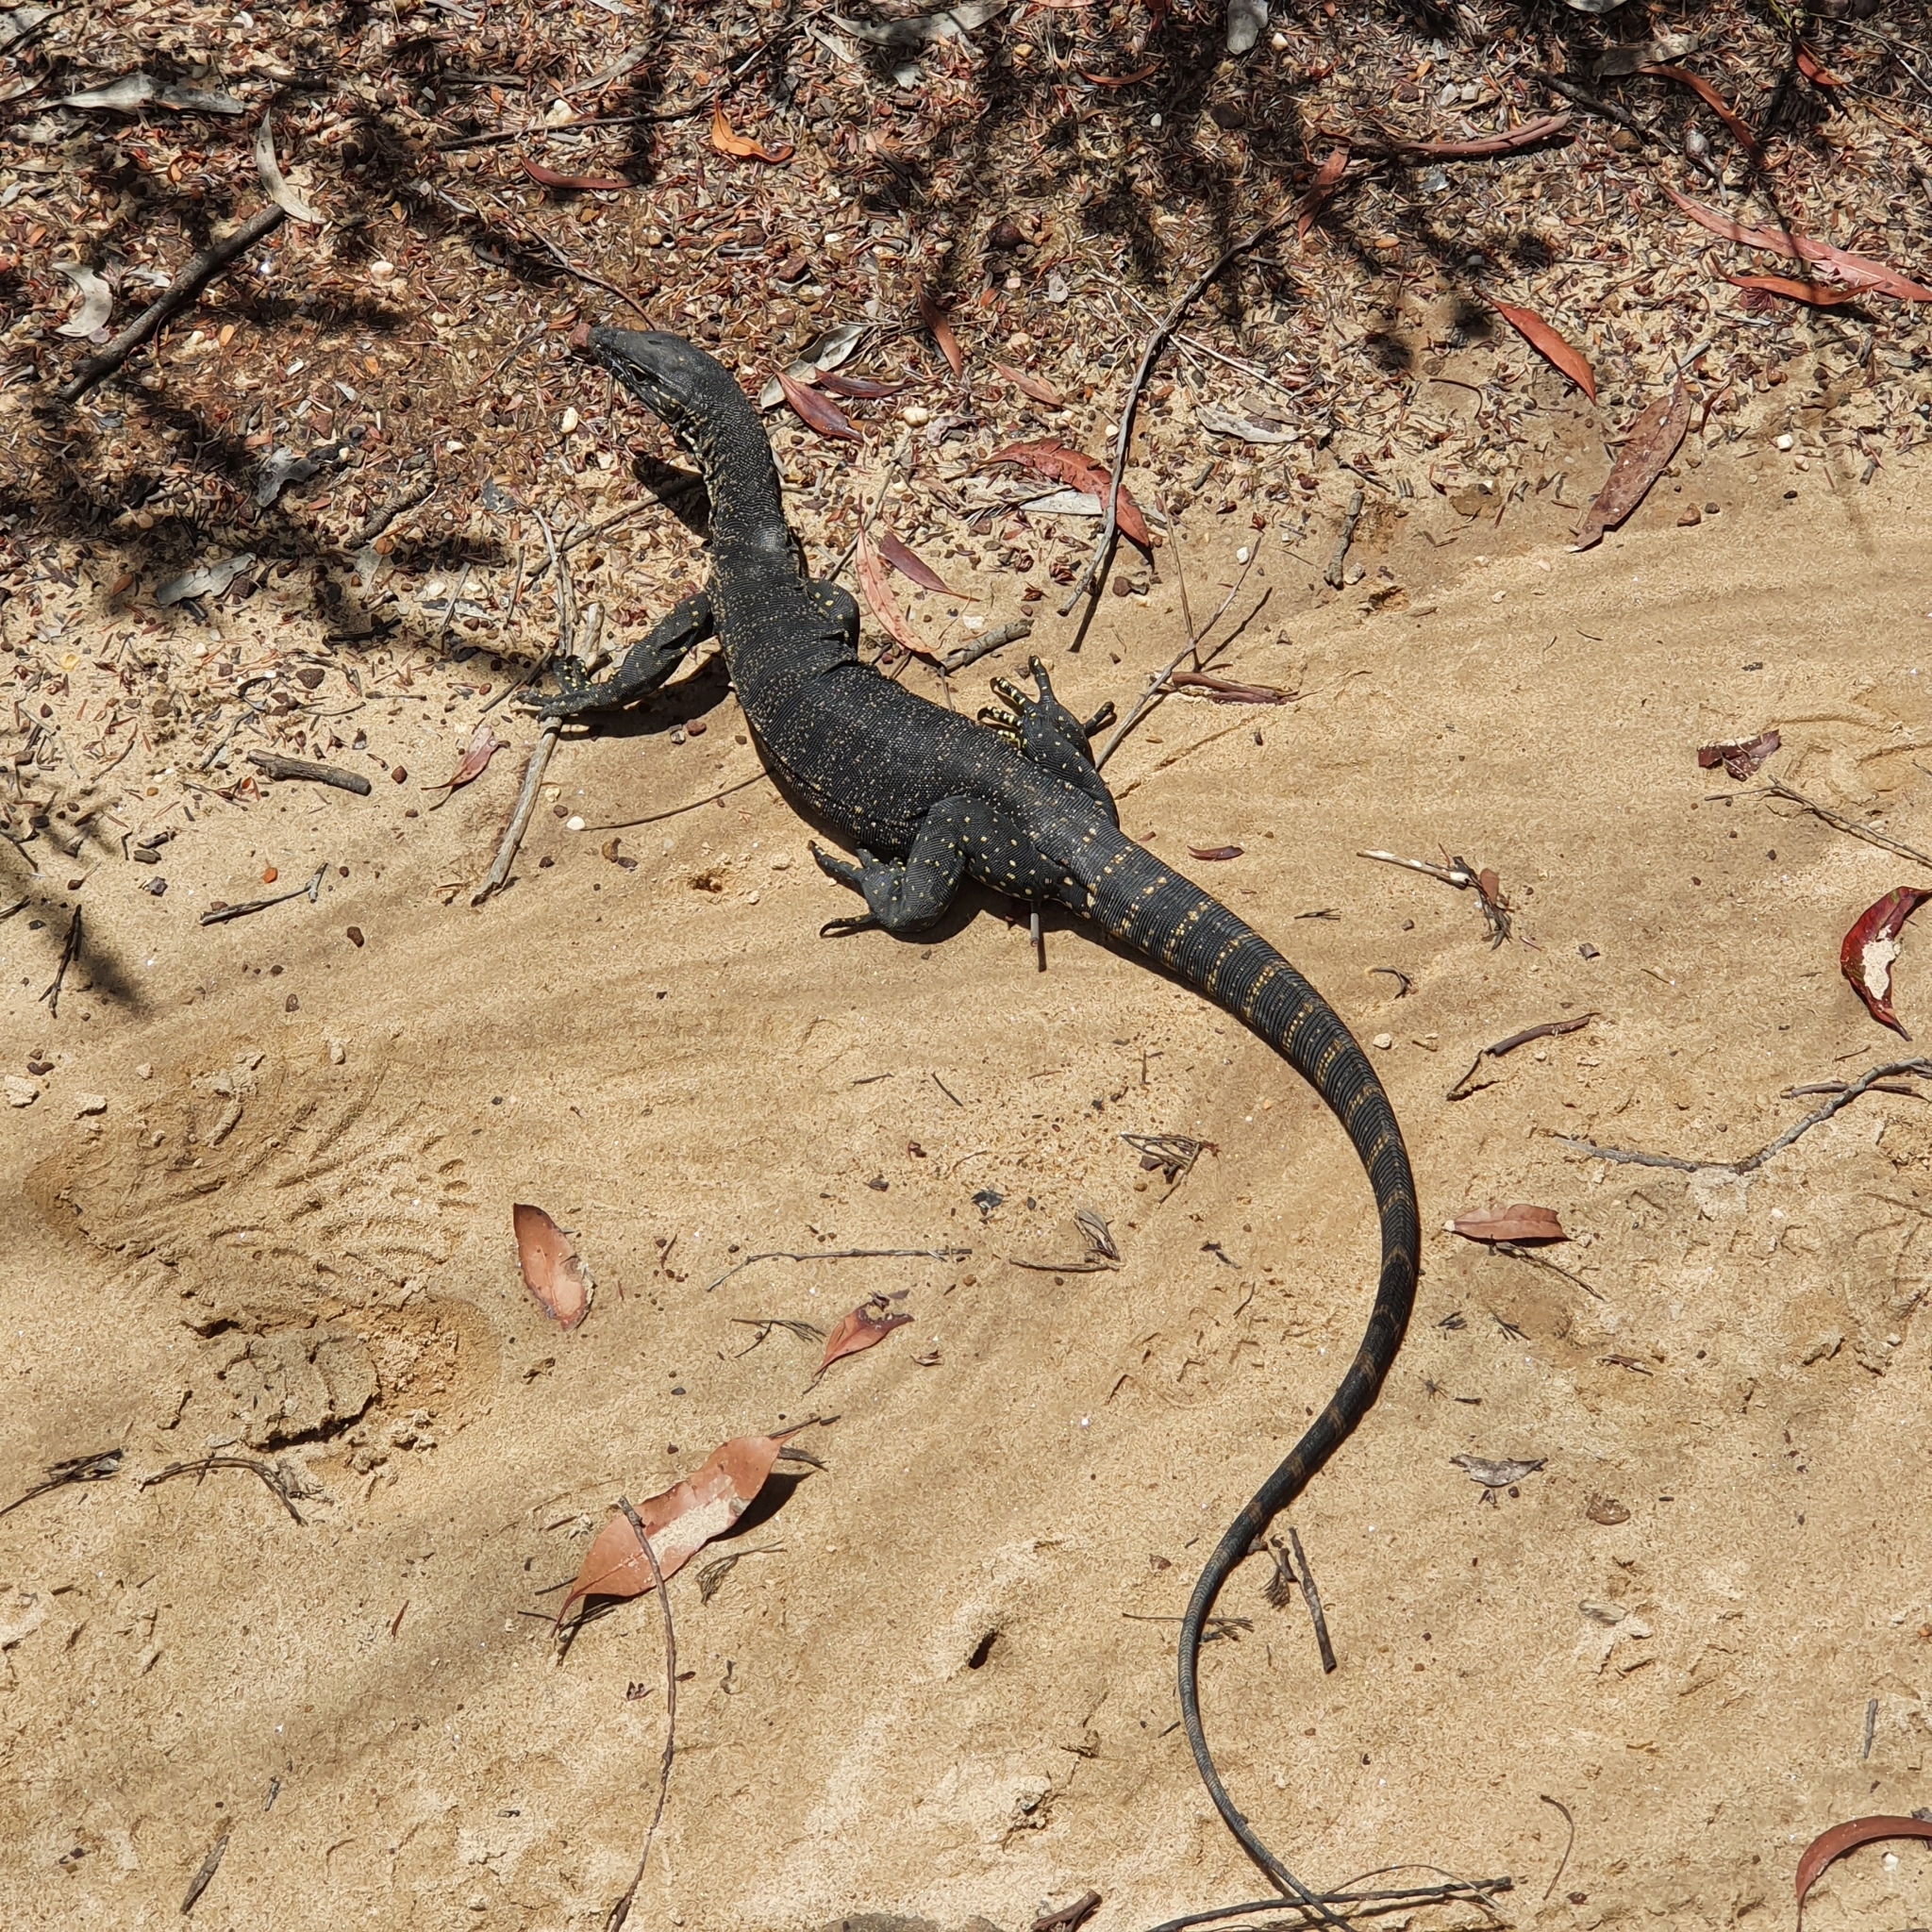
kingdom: Animalia
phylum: Chordata
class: Squamata
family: Varanidae
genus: Varanus
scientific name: Varanus rosenbergi
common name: Heath monitor
